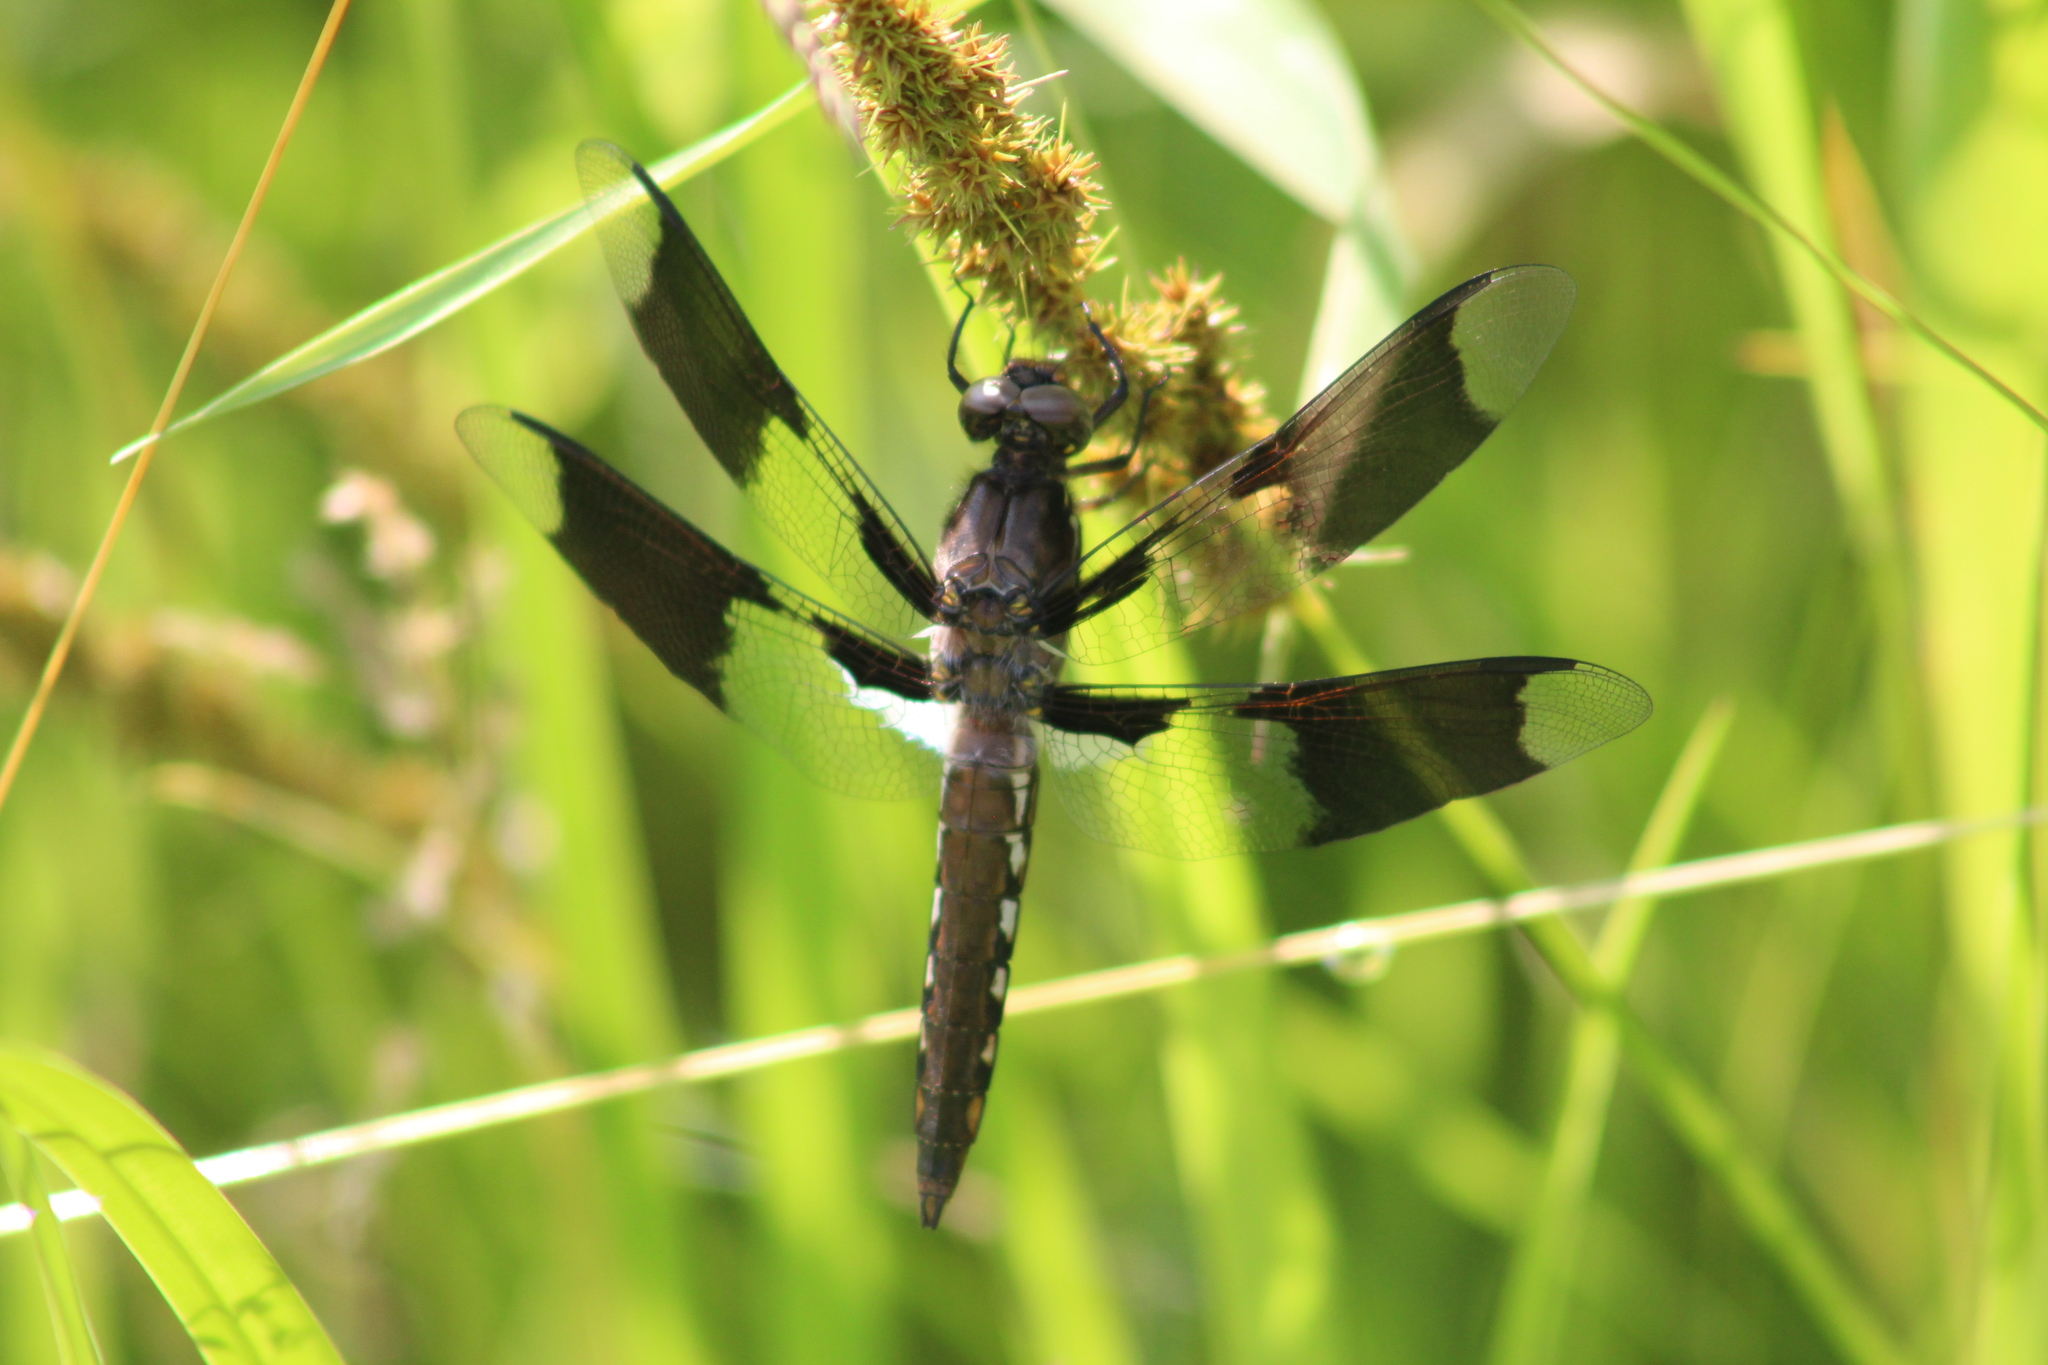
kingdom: Animalia
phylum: Arthropoda
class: Insecta
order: Odonata
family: Libellulidae
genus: Plathemis
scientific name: Plathemis lydia
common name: Common whitetail
